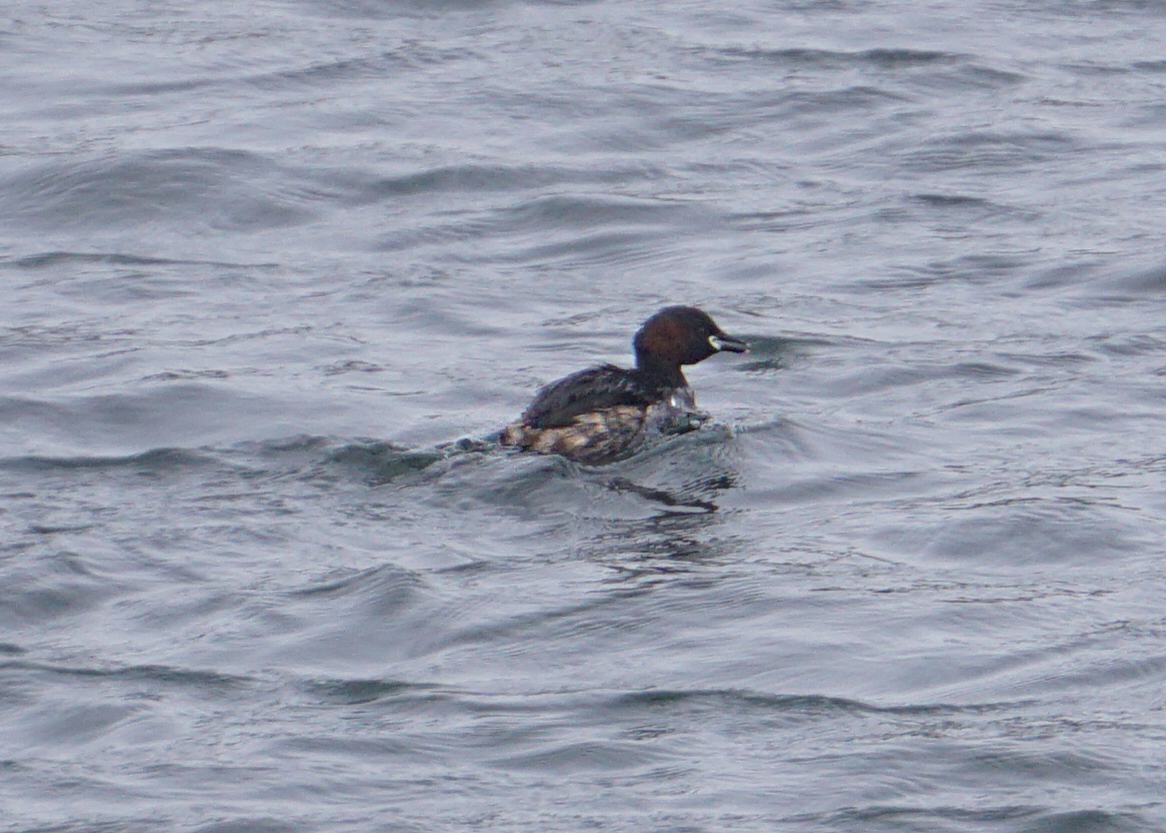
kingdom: Animalia
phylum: Chordata
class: Aves
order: Podicipediformes
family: Podicipedidae
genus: Tachybaptus
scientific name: Tachybaptus ruficollis
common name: Little grebe
